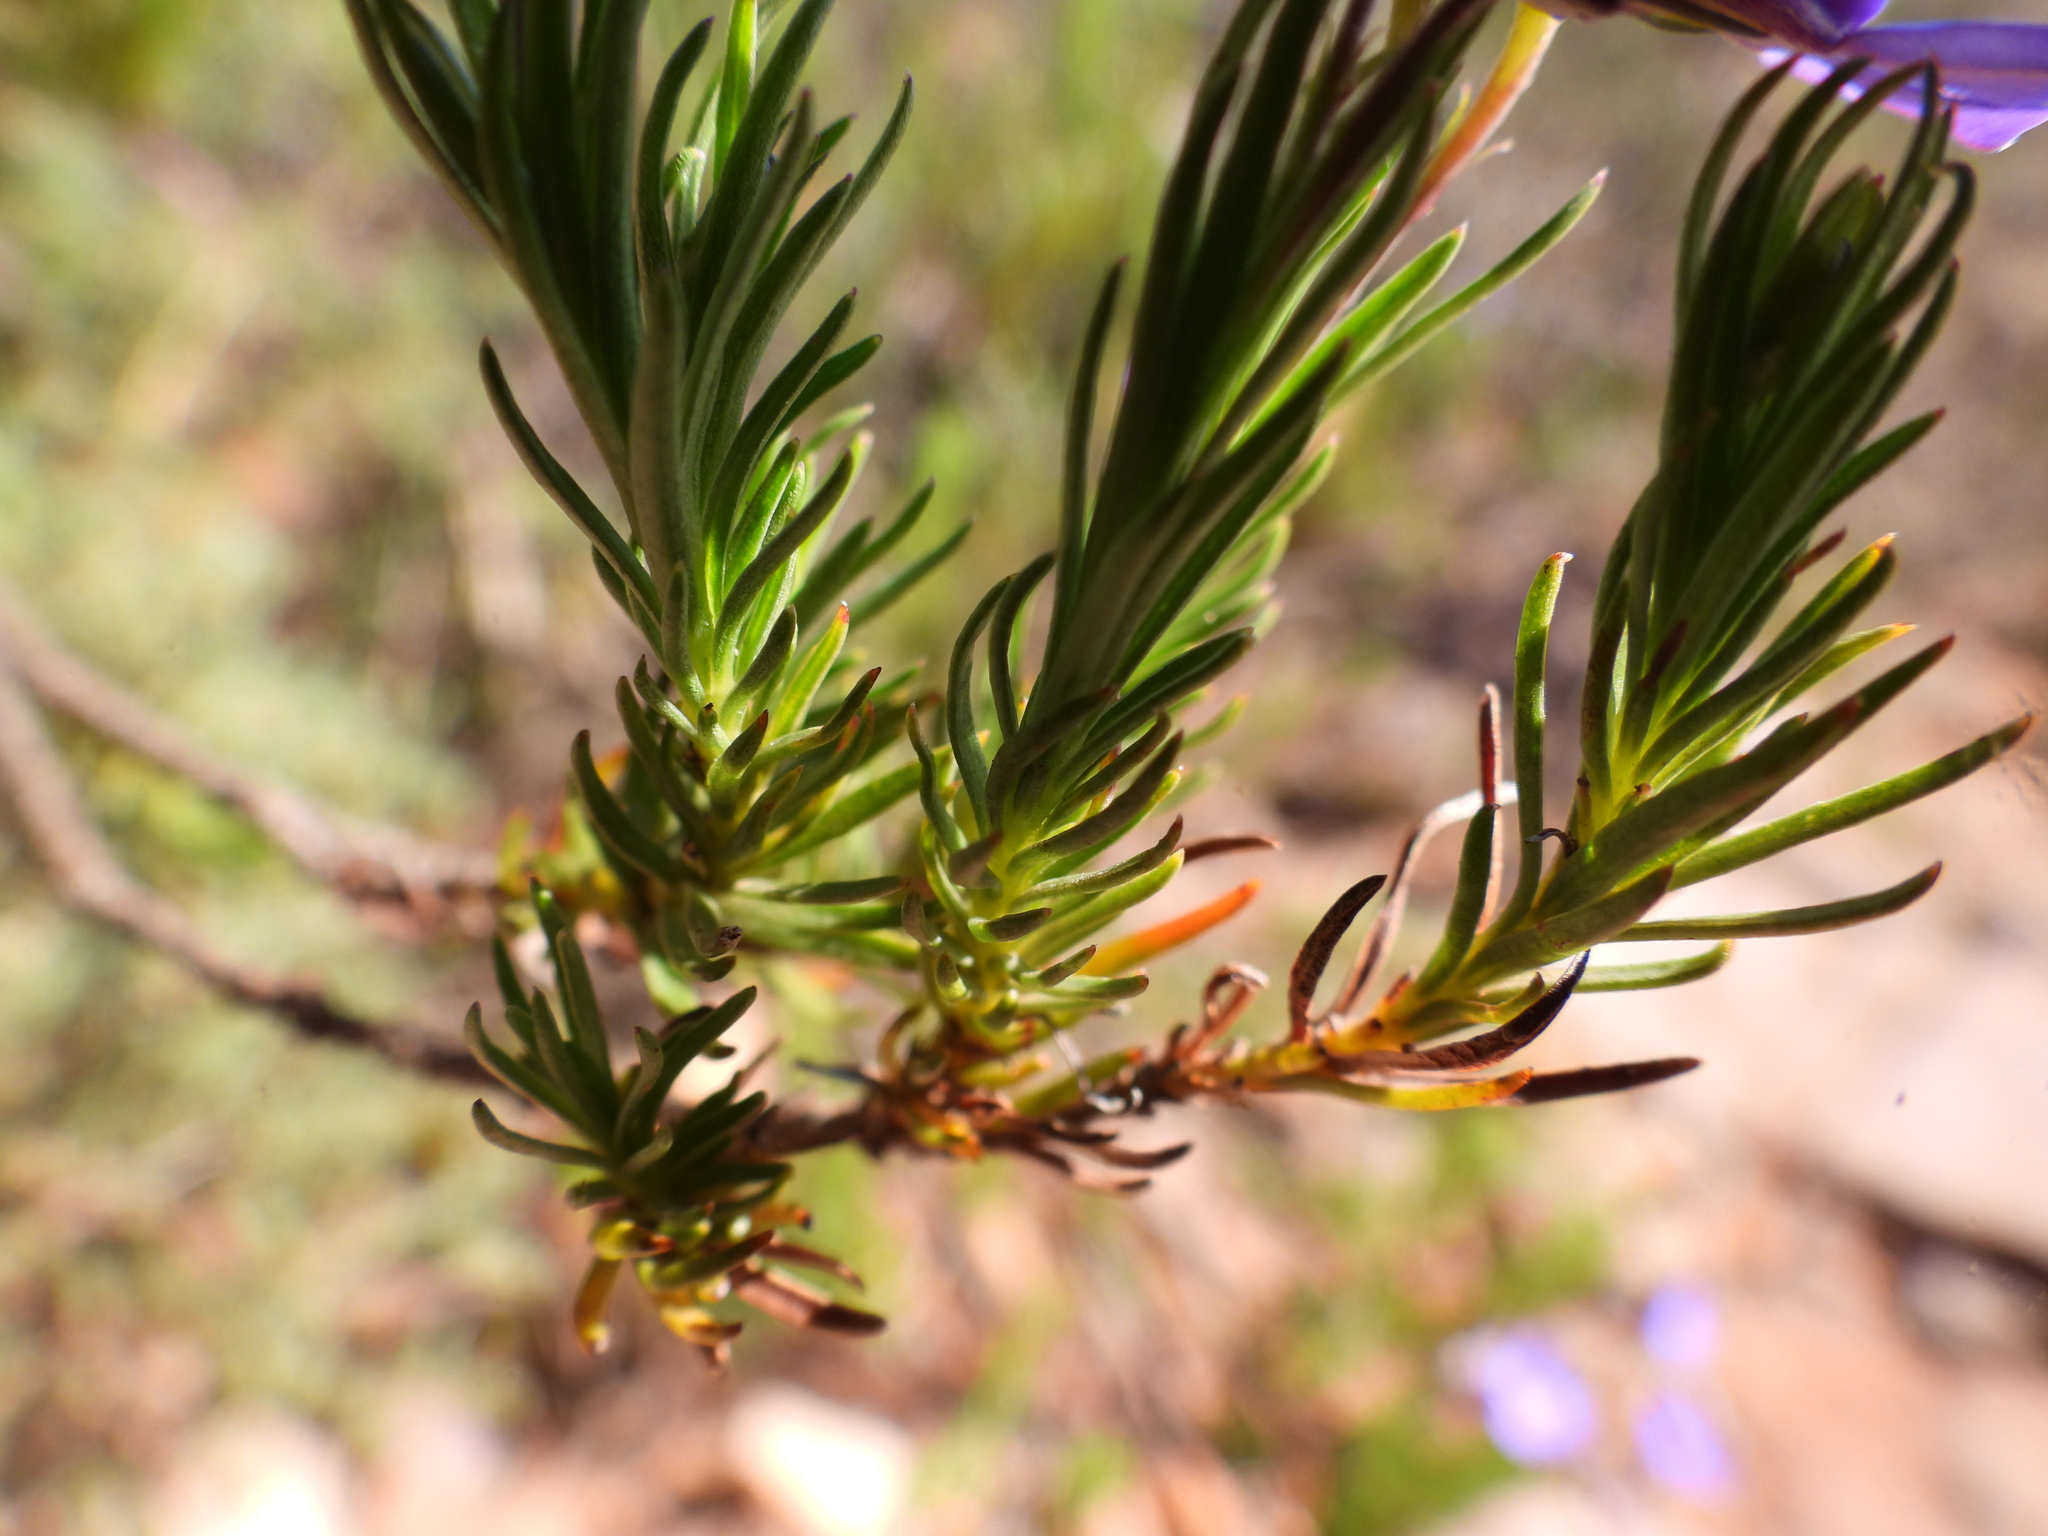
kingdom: Plantae
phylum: Tracheophyta
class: Magnoliopsida
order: Asterales
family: Campanulaceae
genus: Lobelia
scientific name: Lobelia pinifolia
